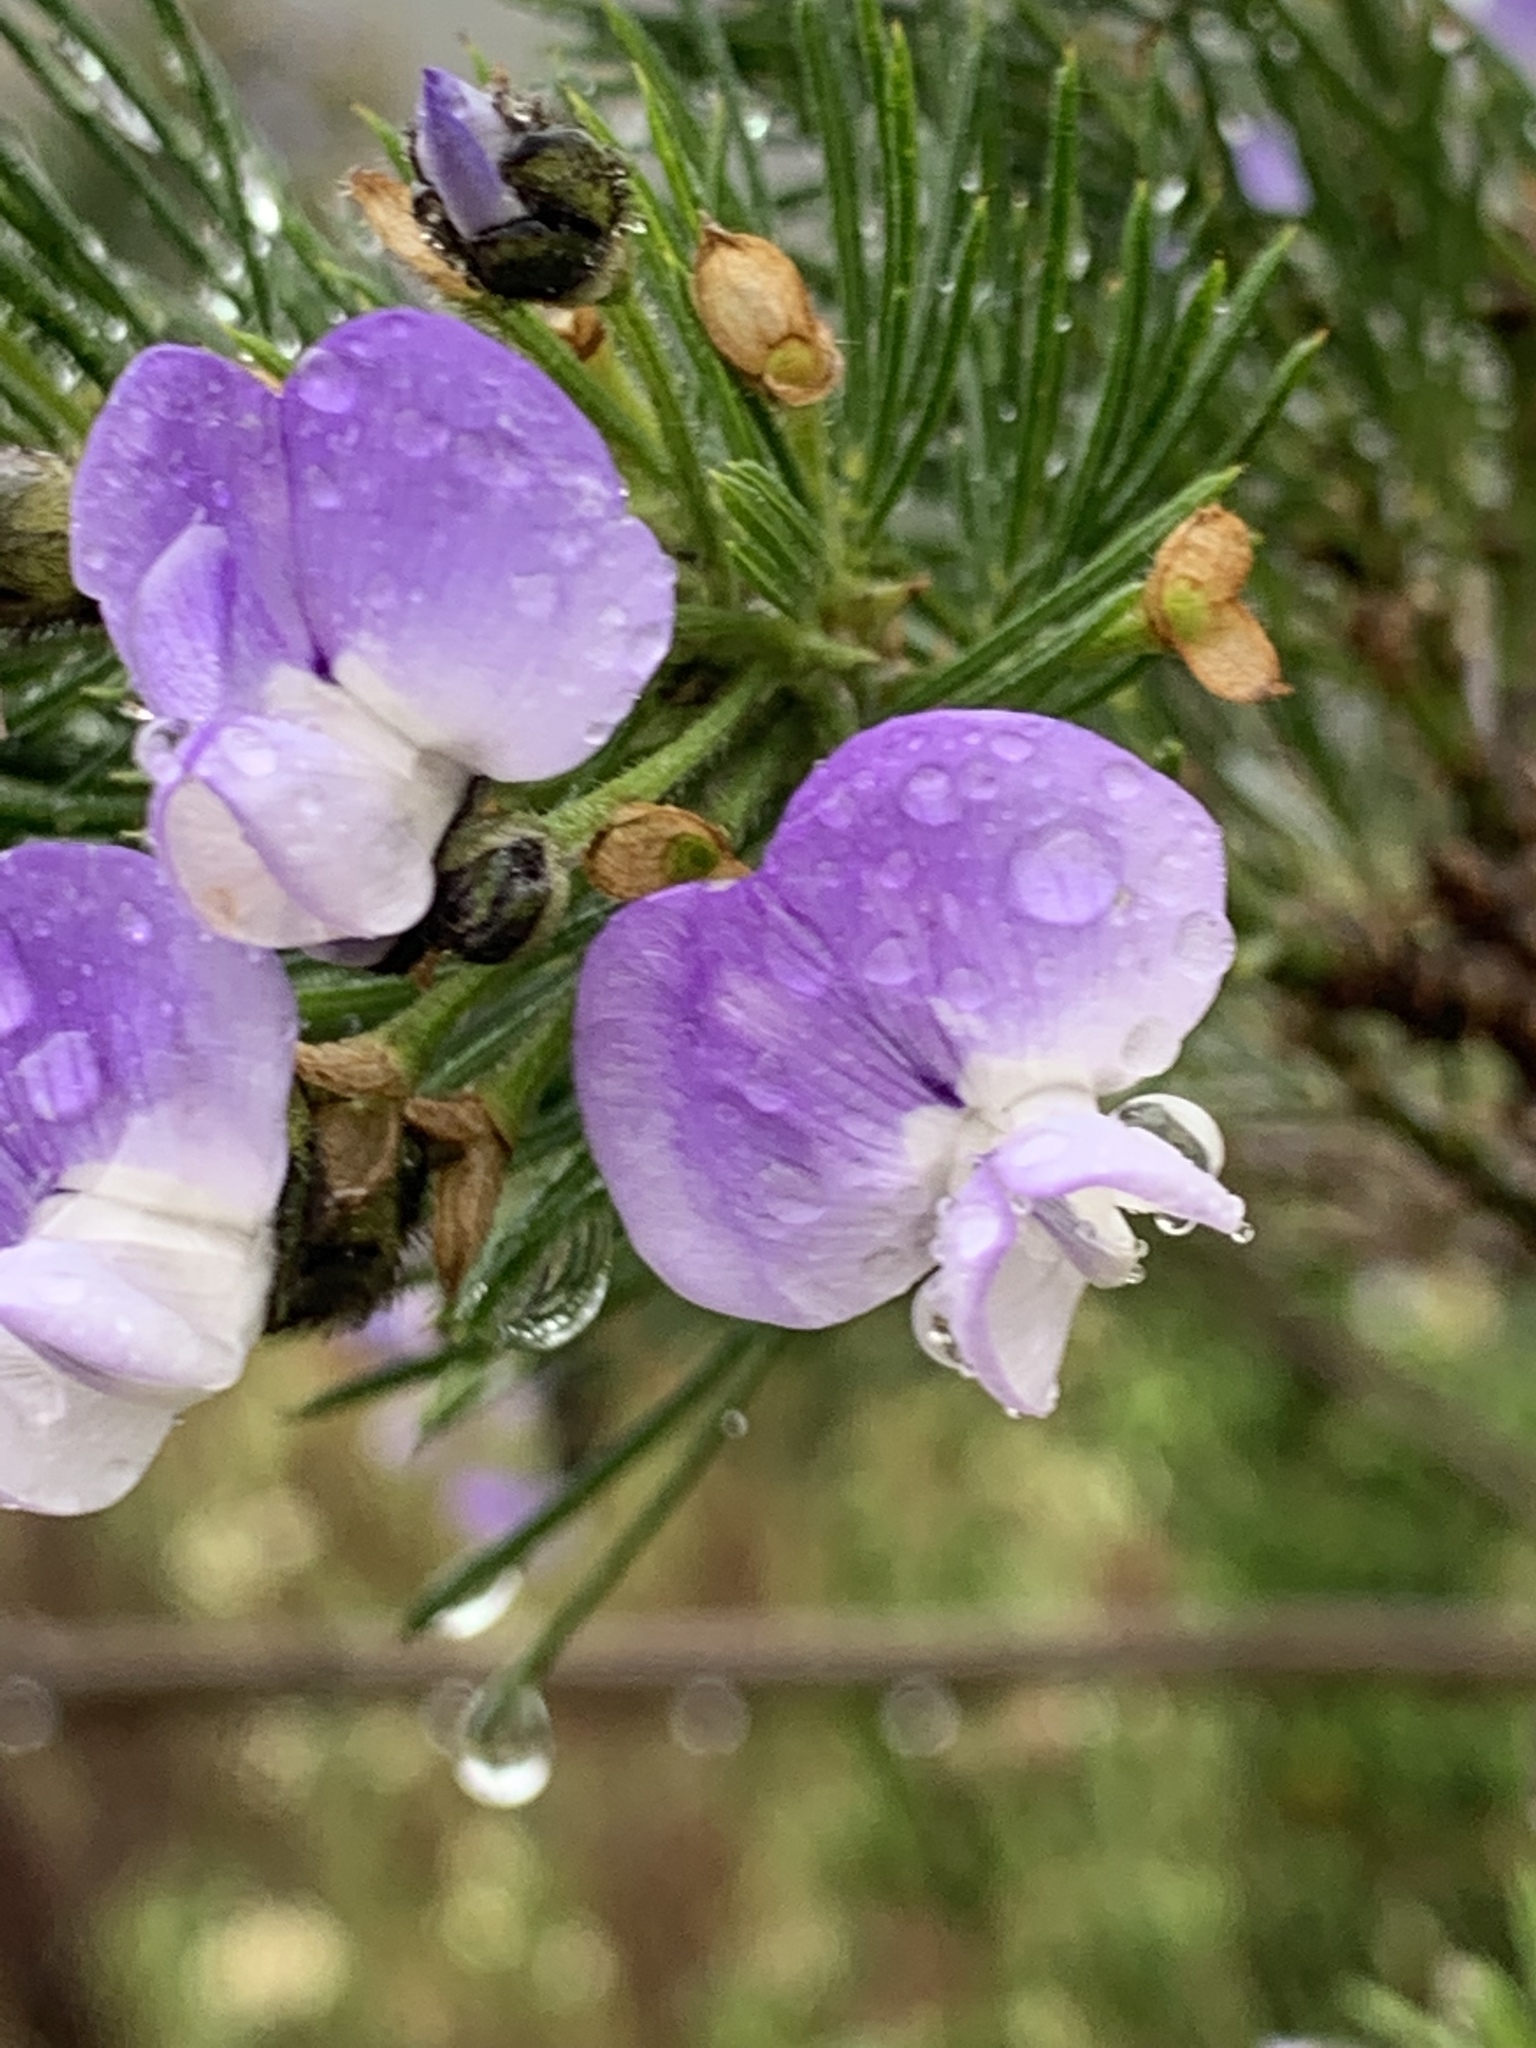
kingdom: Plantae
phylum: Tracheophyta
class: Magnoliopsida
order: Fabales
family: Fabaceae
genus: Psoralea
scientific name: Psoralea arborea
